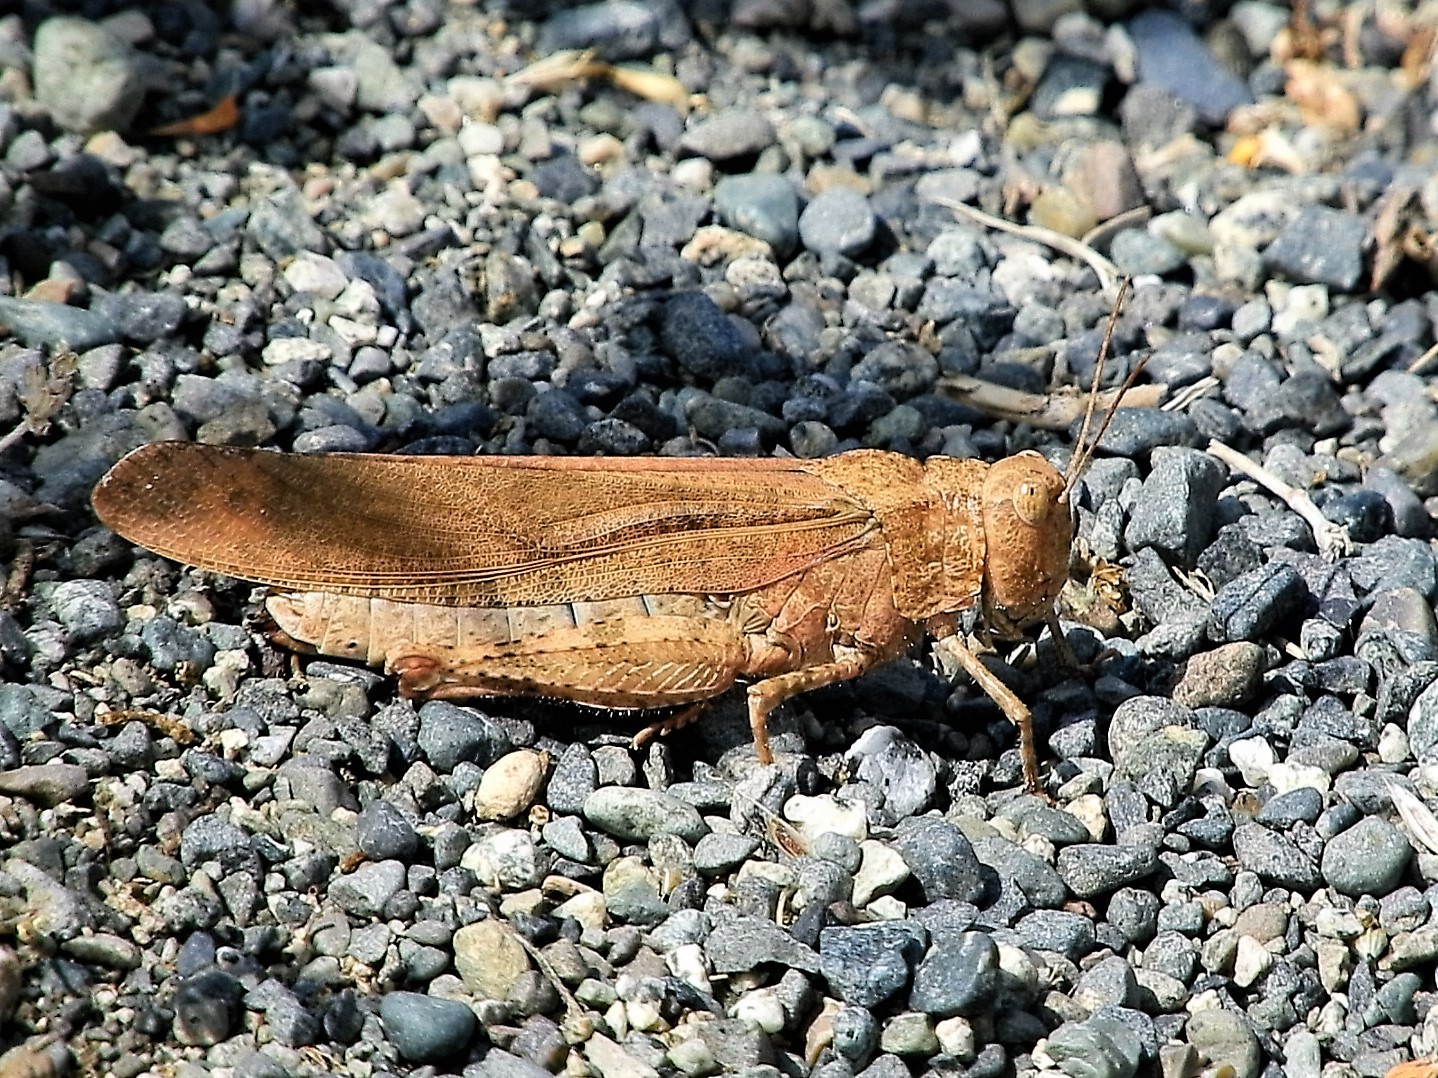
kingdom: Animalia
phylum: Arthropoda
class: Insecta
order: Orthoptera
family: Acrididae
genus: Dissosteira
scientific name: Dissosteira carolina
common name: Carolina grasshopper
